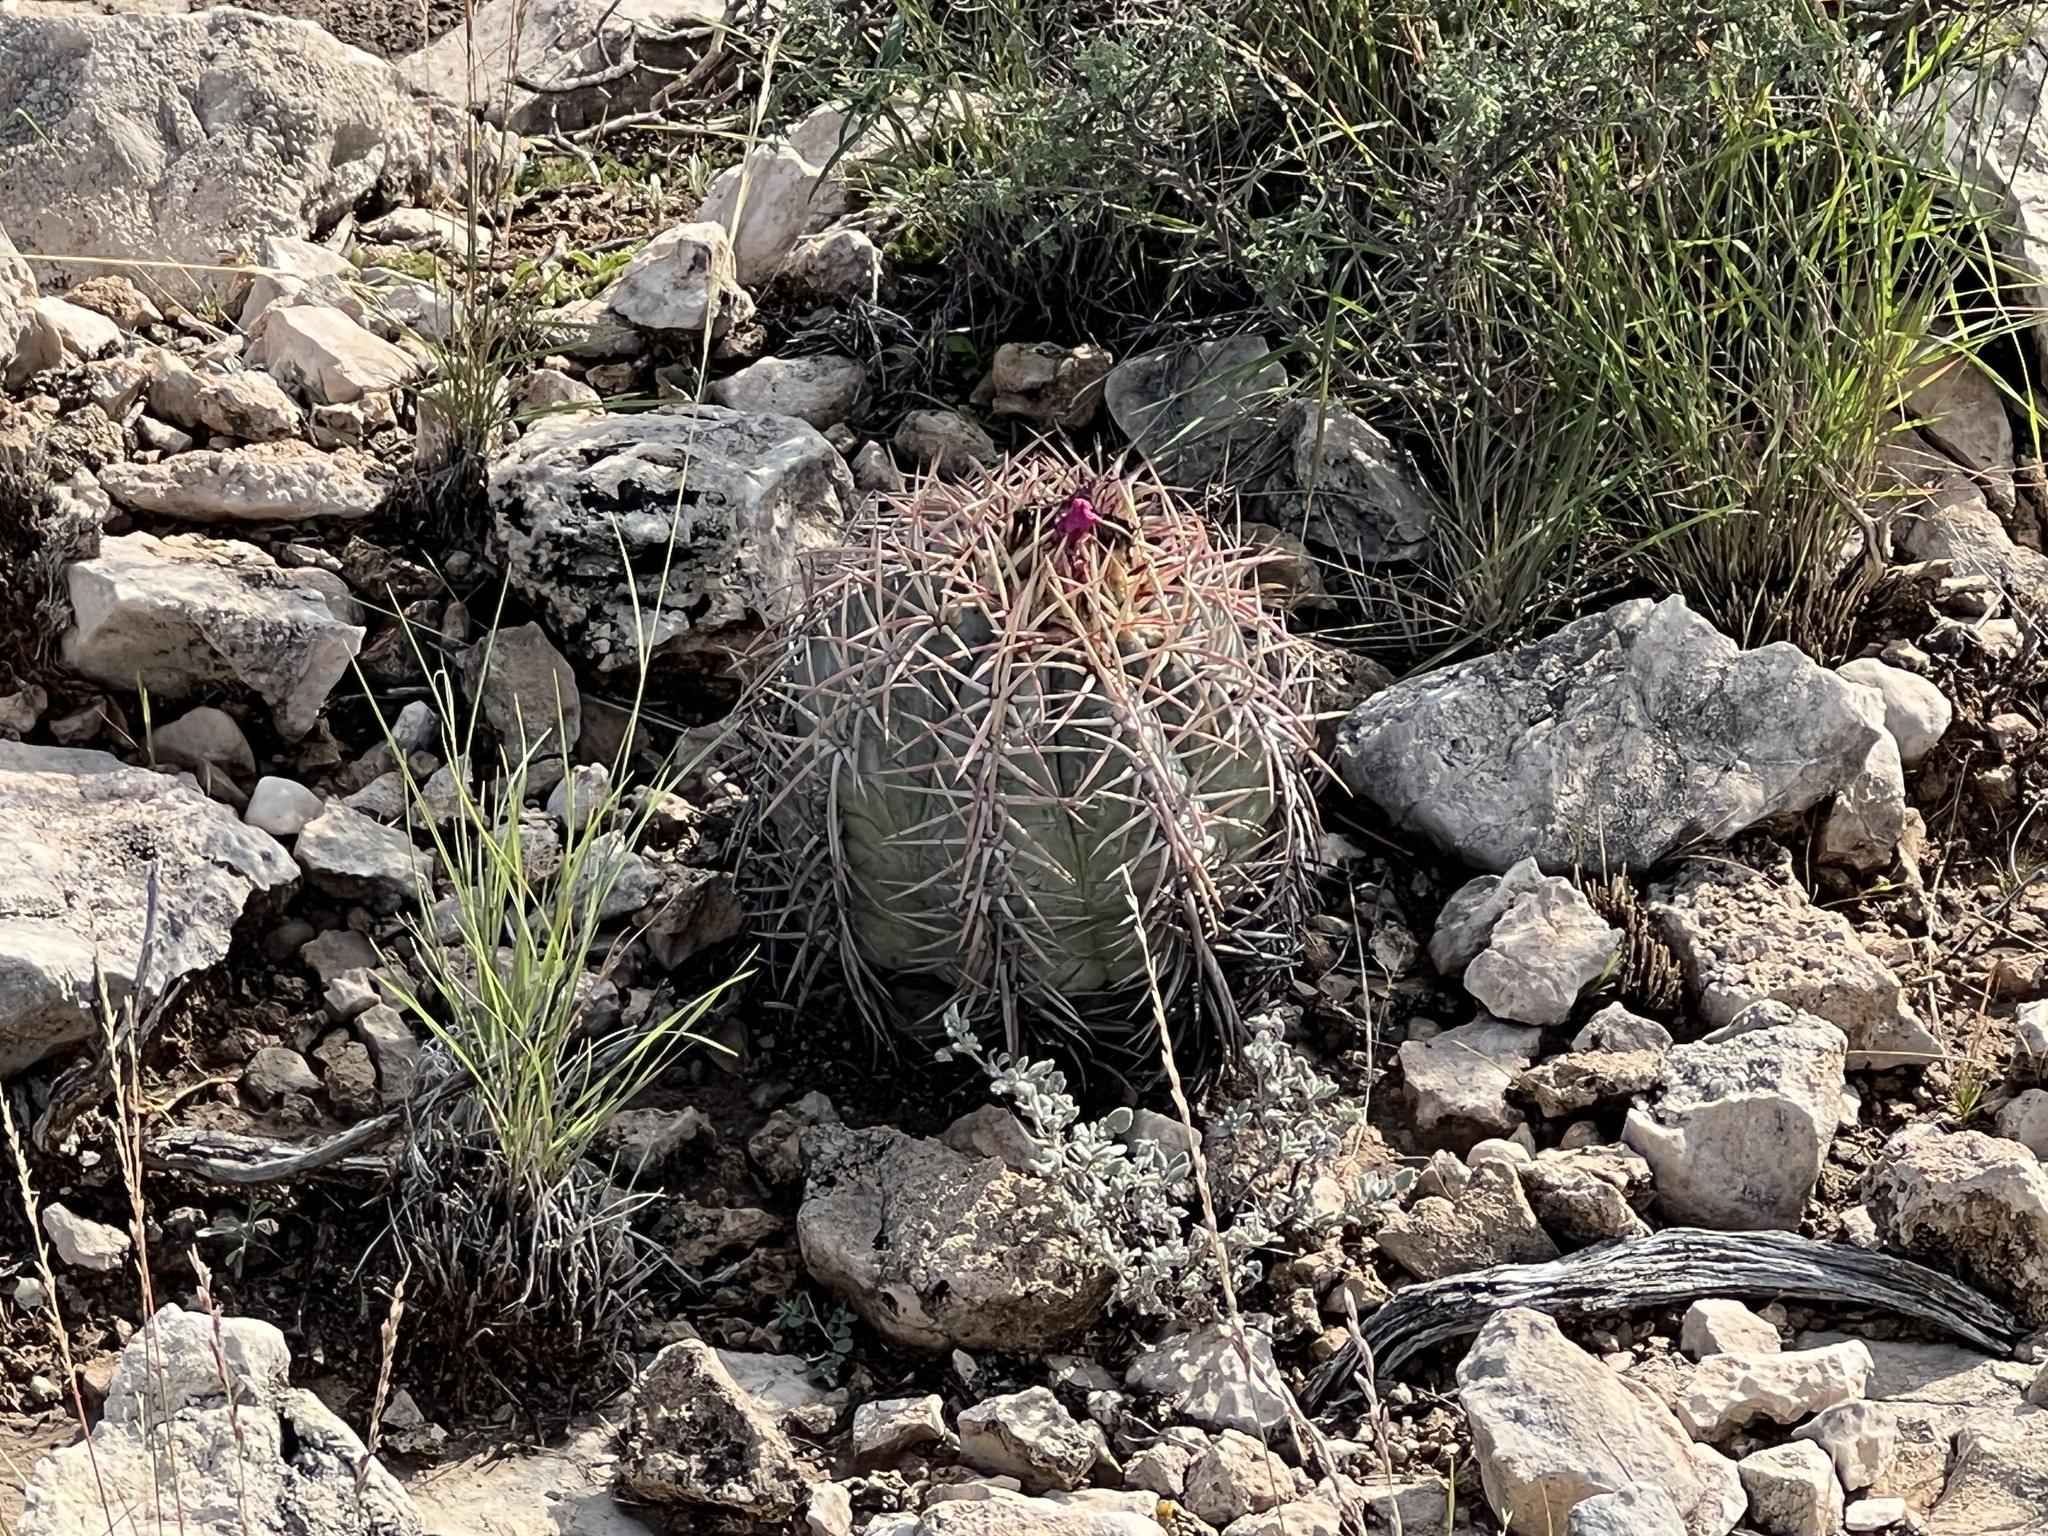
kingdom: Plantae
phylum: Tracheophyta
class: Magnoliopsida
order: Caryophyllales
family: Cactaceae
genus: Echinocactus
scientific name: Echinocactus horizonthalonius
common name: Devilshead
